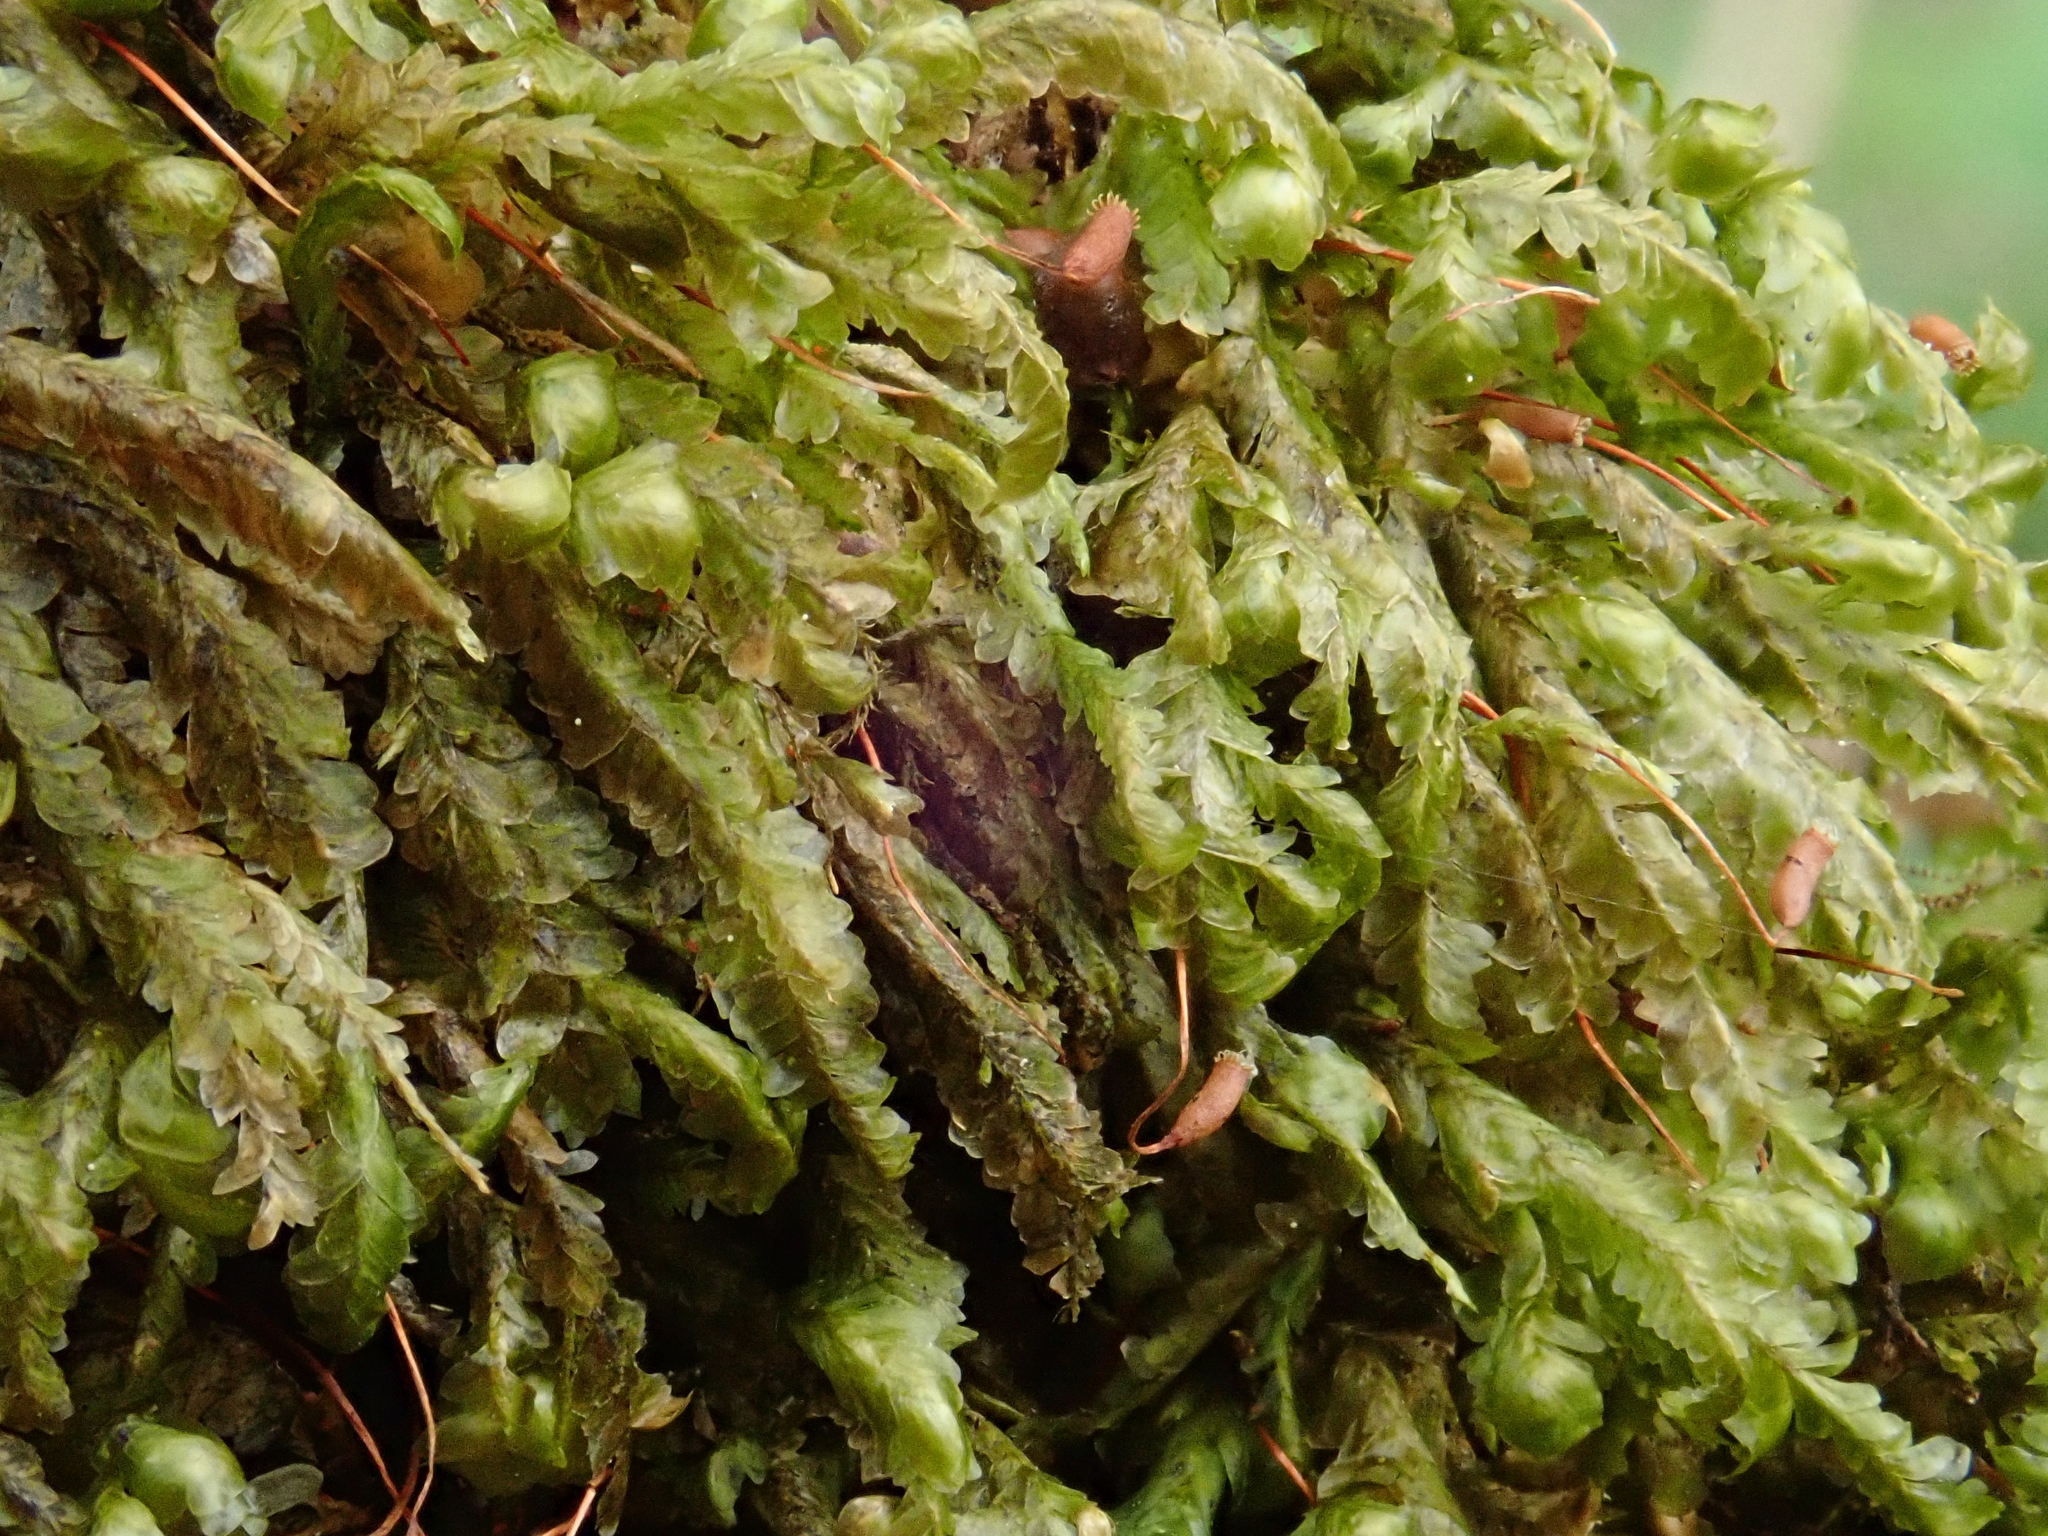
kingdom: Plantae
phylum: Bryophyta
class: Bryopsida
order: Hypnales
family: Neckeraceae
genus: Homalia
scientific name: Homalia trichomanoides
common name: Lime homalia moss
